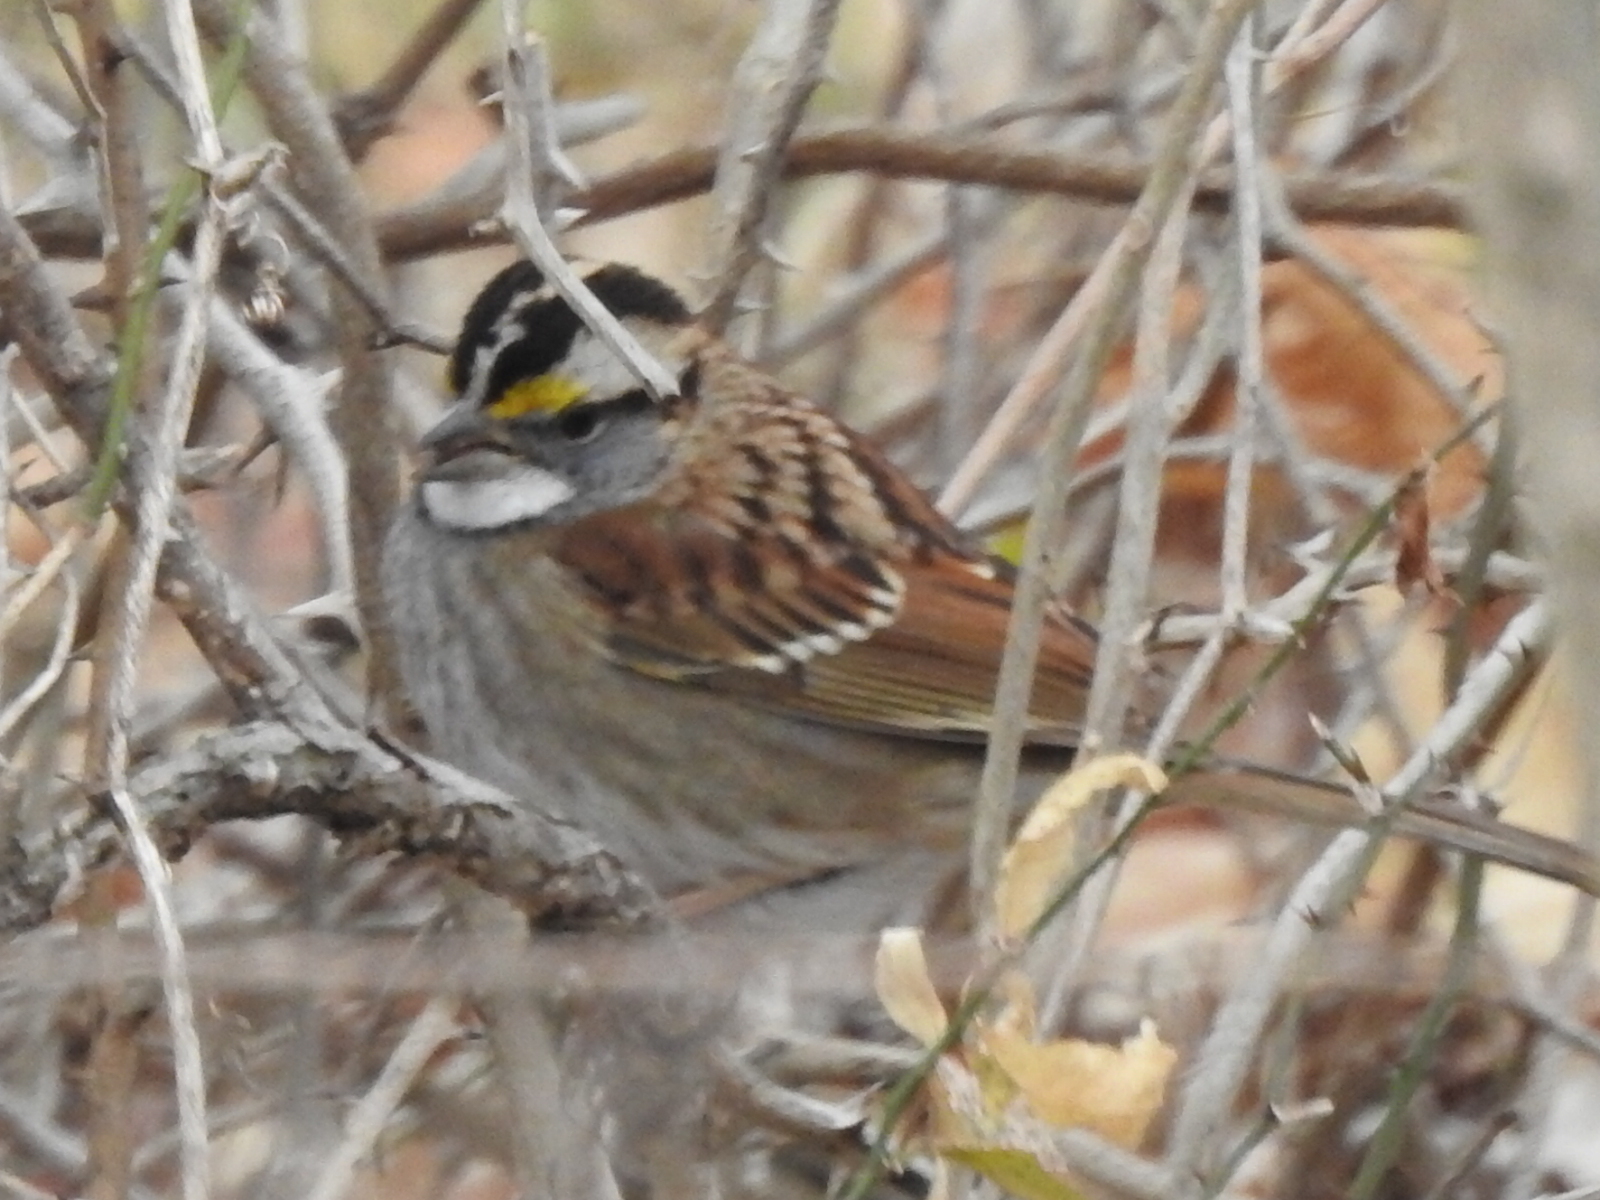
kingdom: Animalia
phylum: Chordata
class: Aves
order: Passeriformes
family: Passerellidae
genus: Zonotrichia
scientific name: Zonotrichia albicollis
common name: White-throated sparrow
